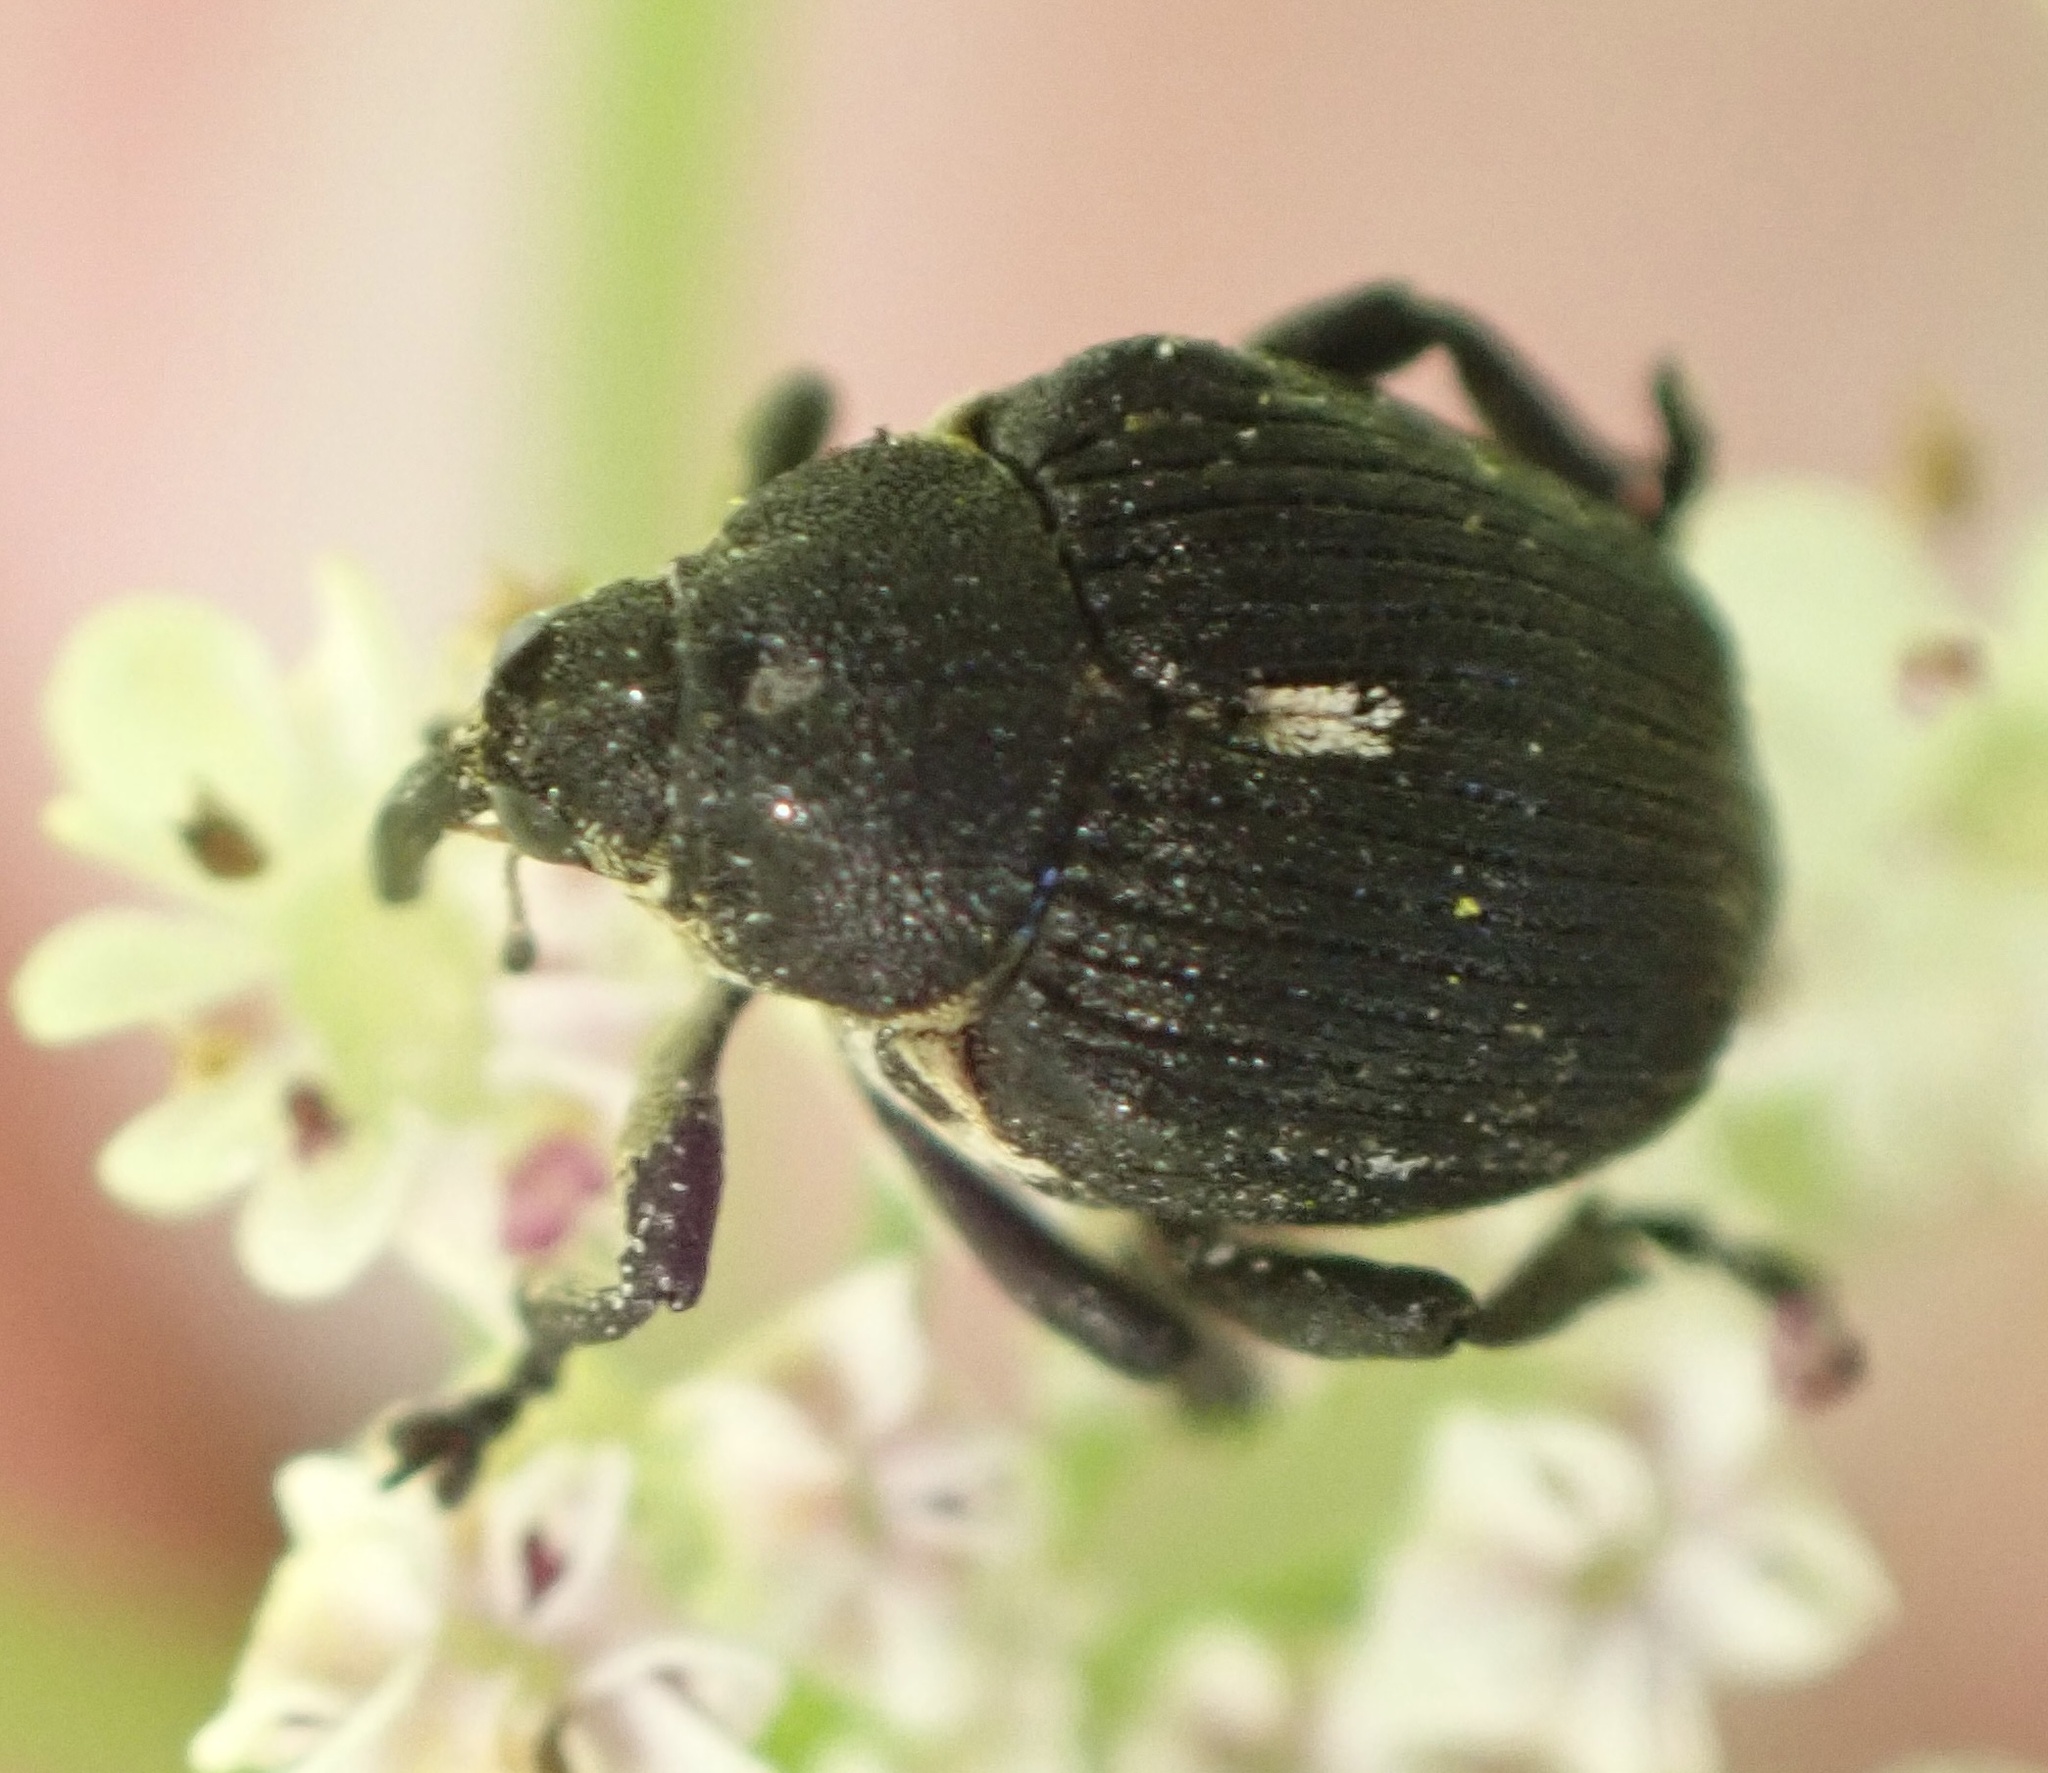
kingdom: Animalia
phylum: Arthropoda
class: Insecta
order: Coleoptera
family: Curculionidae
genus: Mononychus
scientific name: Mononychus punctumalbum
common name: Iris weevil
